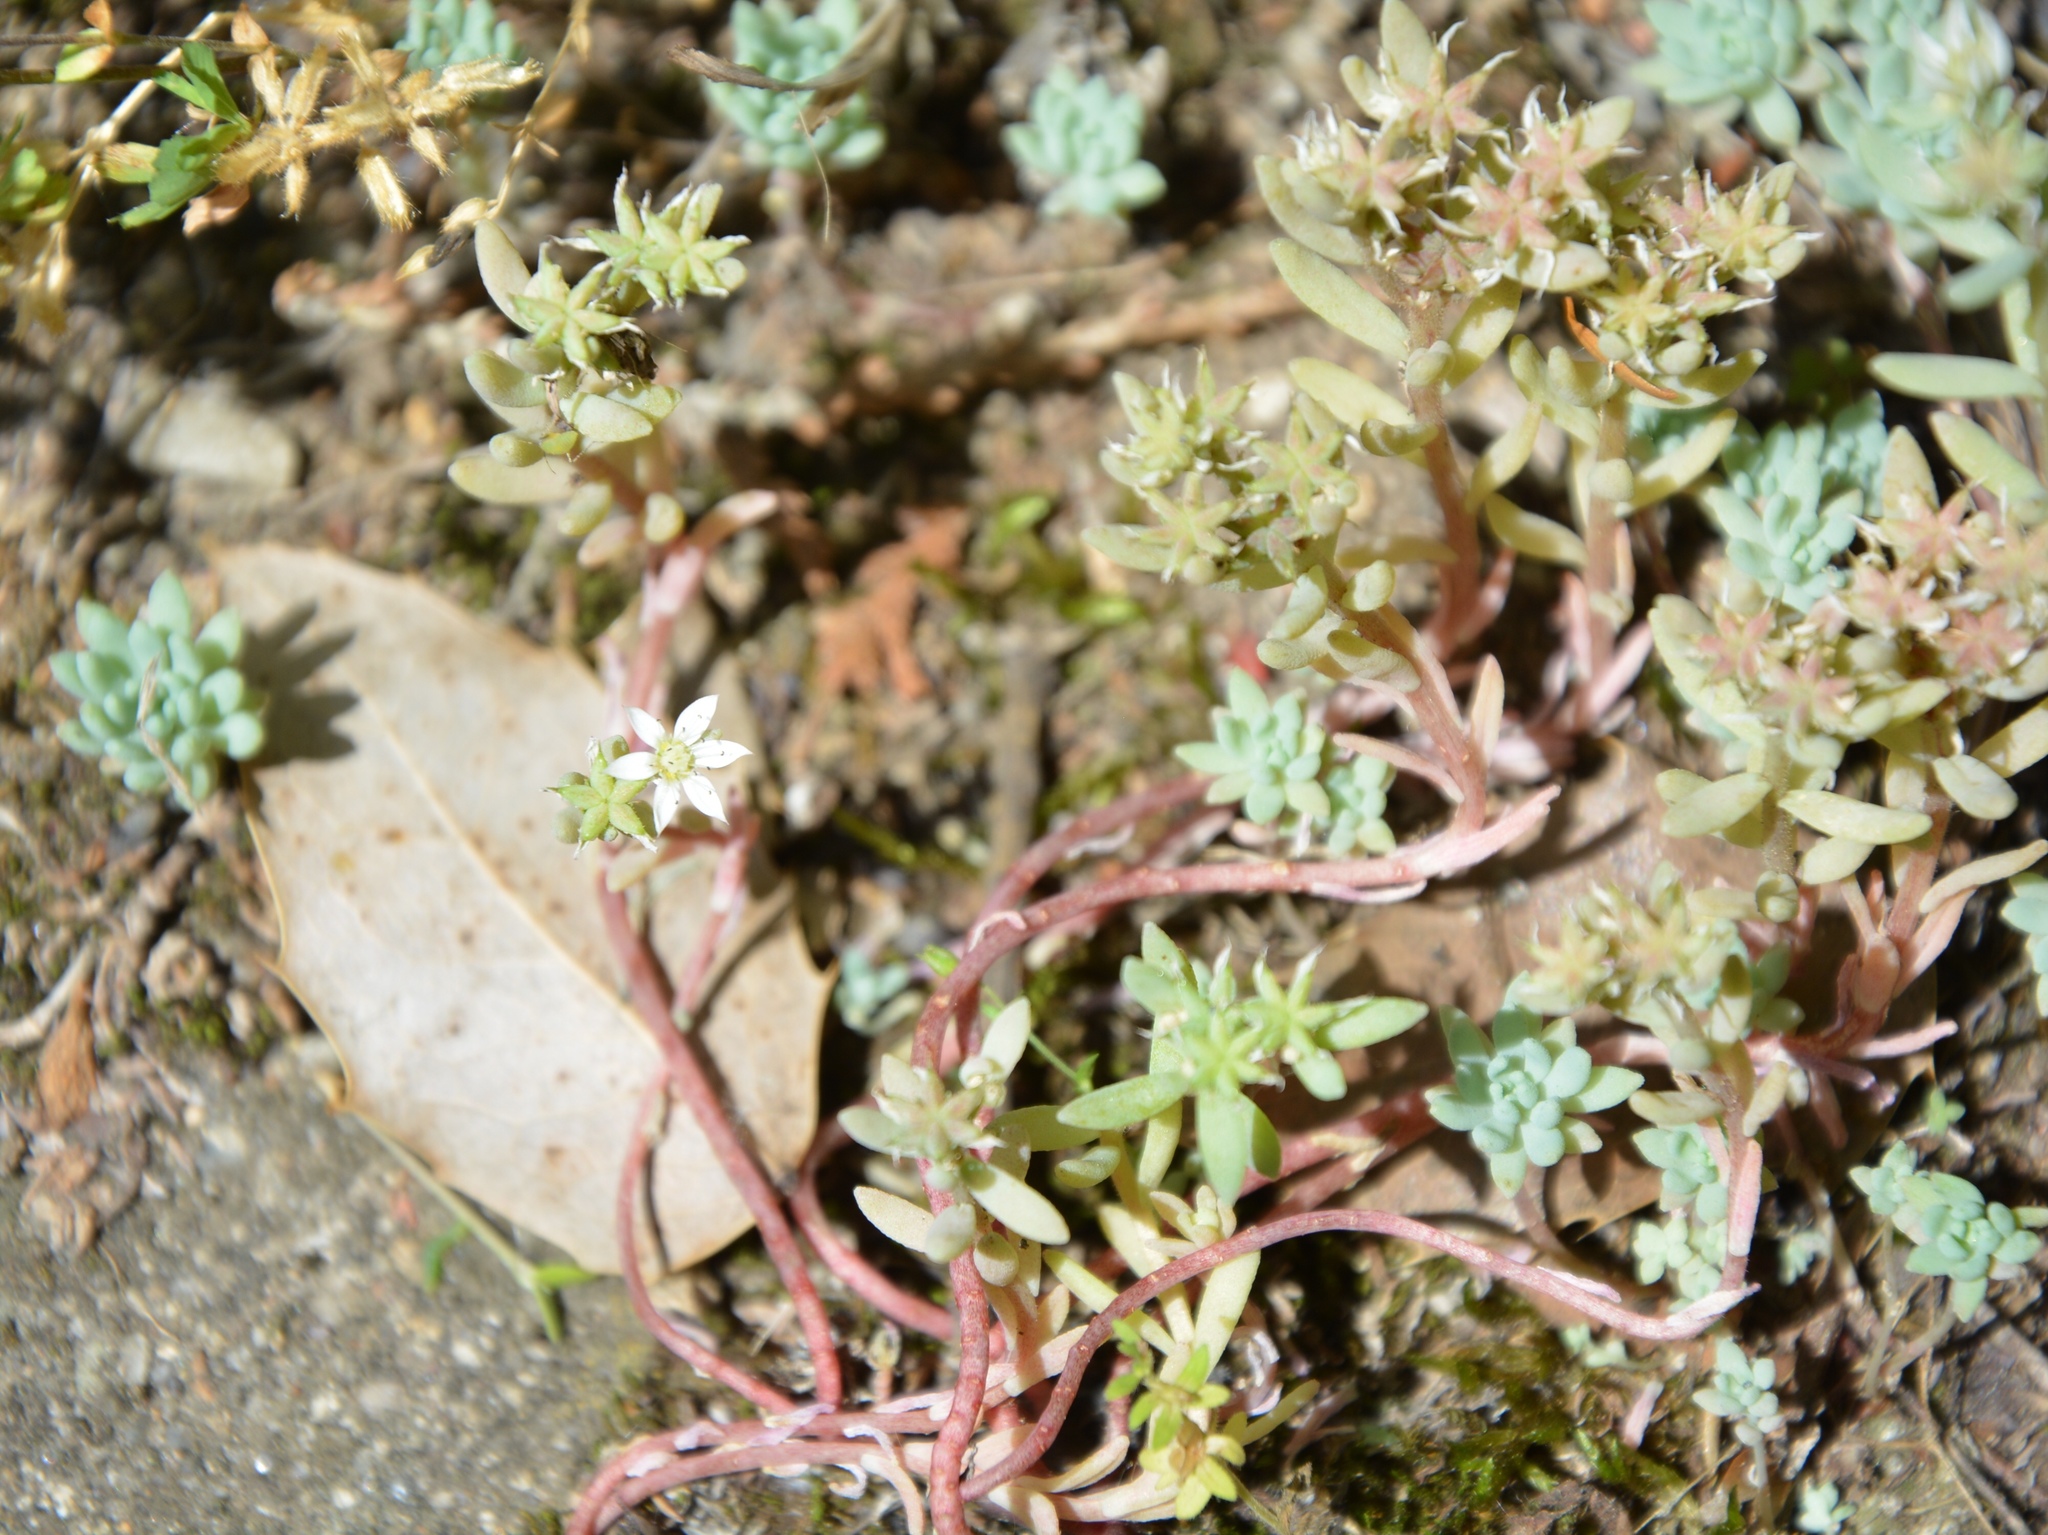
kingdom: Plantae
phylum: Tracheophyta
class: Magnoliopsida
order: Saxifragales
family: Crassulaceae
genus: Sedum
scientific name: Sedum hispanicum
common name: Spanish stonecrop
